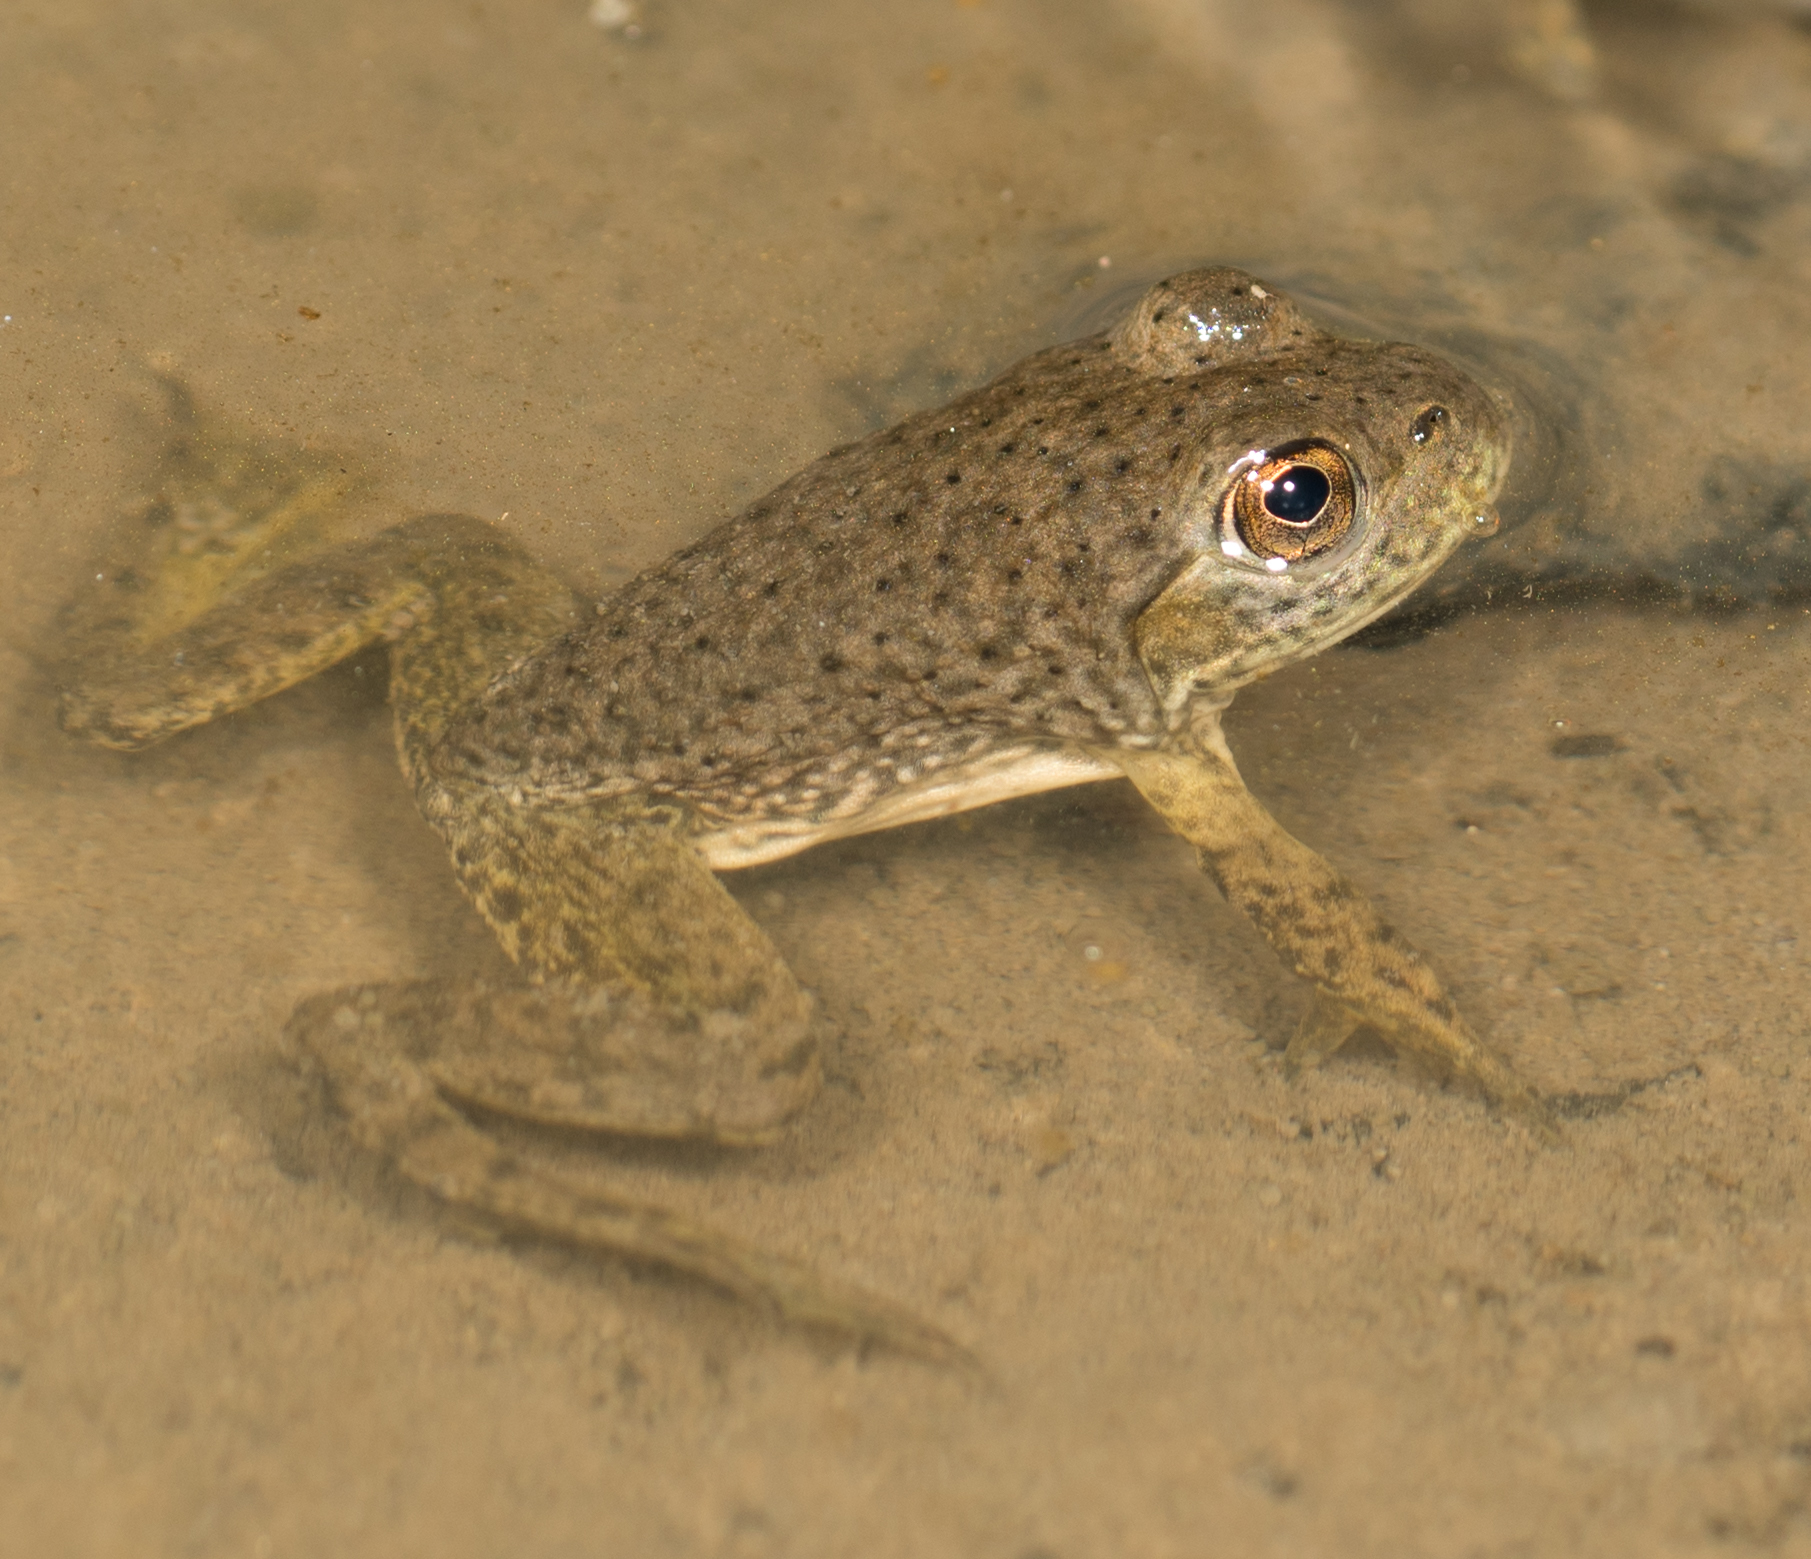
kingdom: Animalia
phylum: Chordata
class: Amphibia
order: Anura
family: Ranidae
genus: Lithobates
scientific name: Lithobates catesbeianus
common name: American bullfrog
